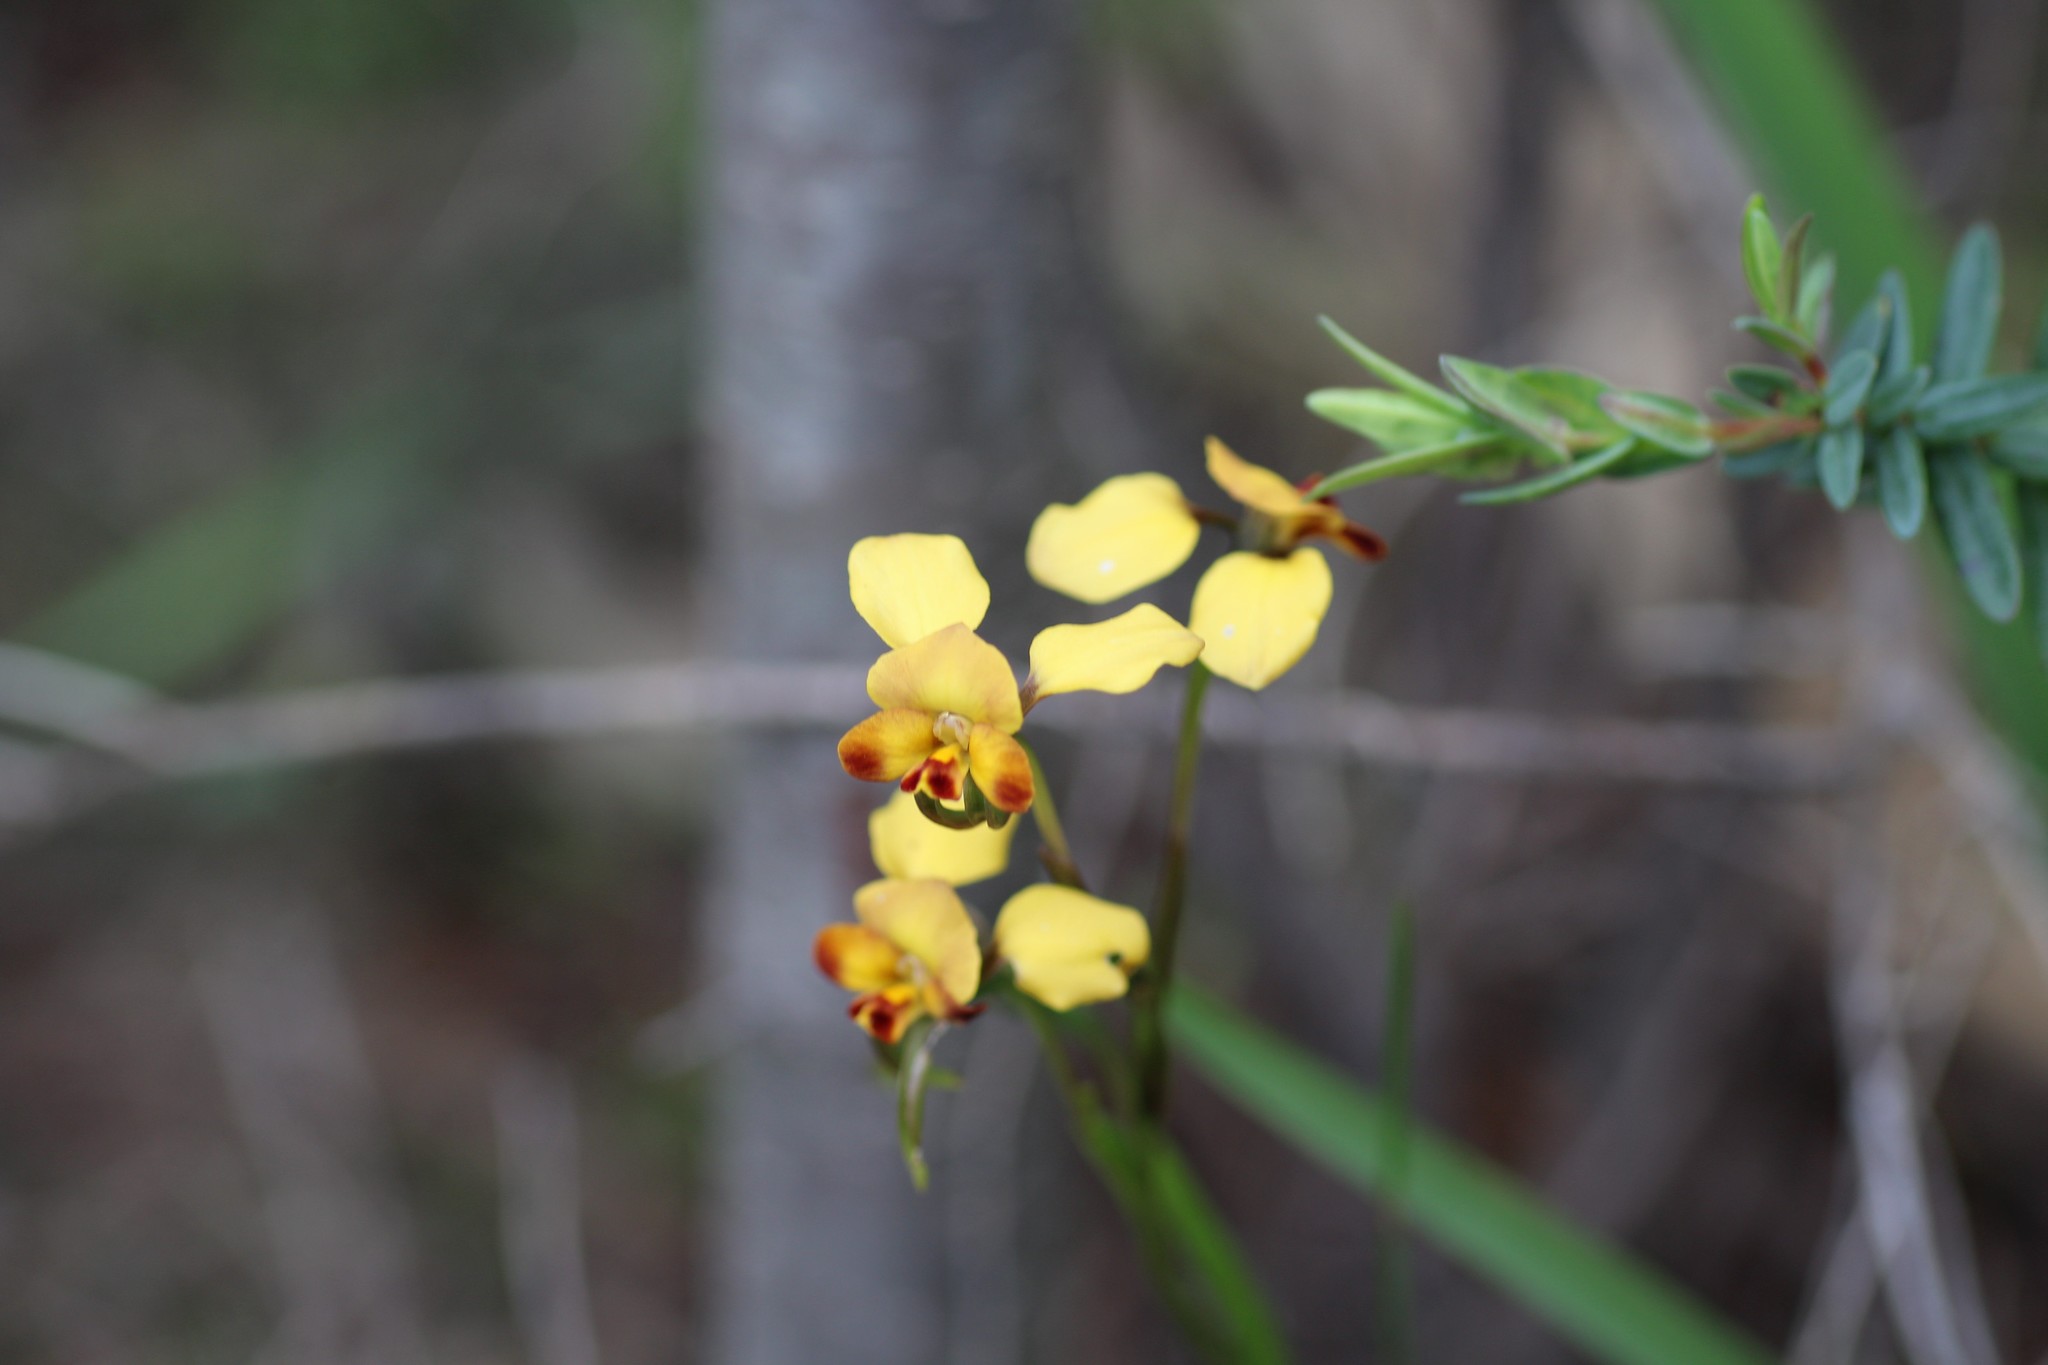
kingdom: Plantae
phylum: Tracheophyta
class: Liliopsida
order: Asparagales
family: Orchidaceae
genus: Diuris
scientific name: Diuris porrifolia
